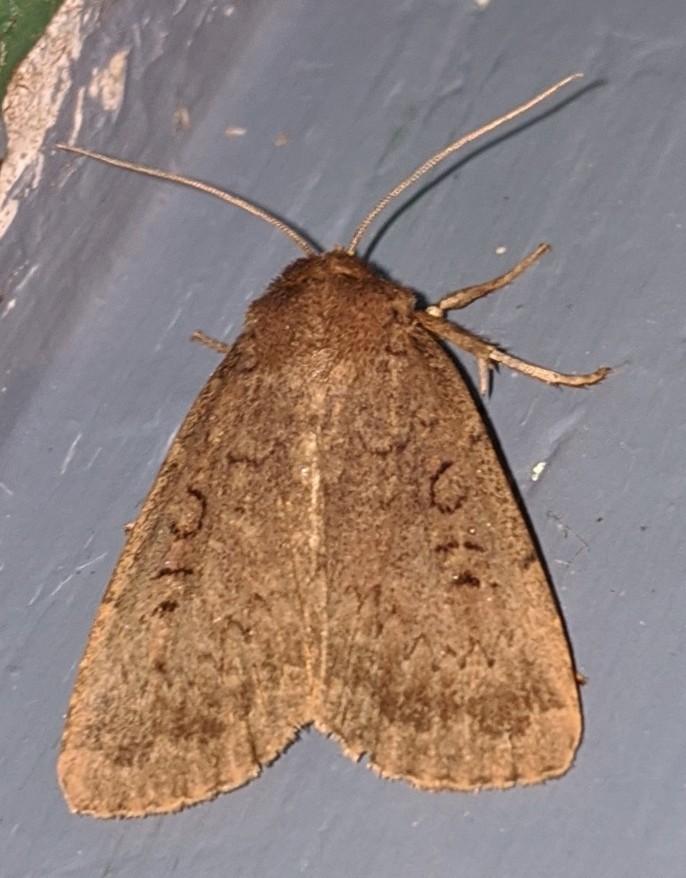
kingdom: Animalia
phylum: Arthropoda
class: Insecta
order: Lepidoptera
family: Noctuidae
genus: Graphiphora
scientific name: Graphiphora augur
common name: Double dart
